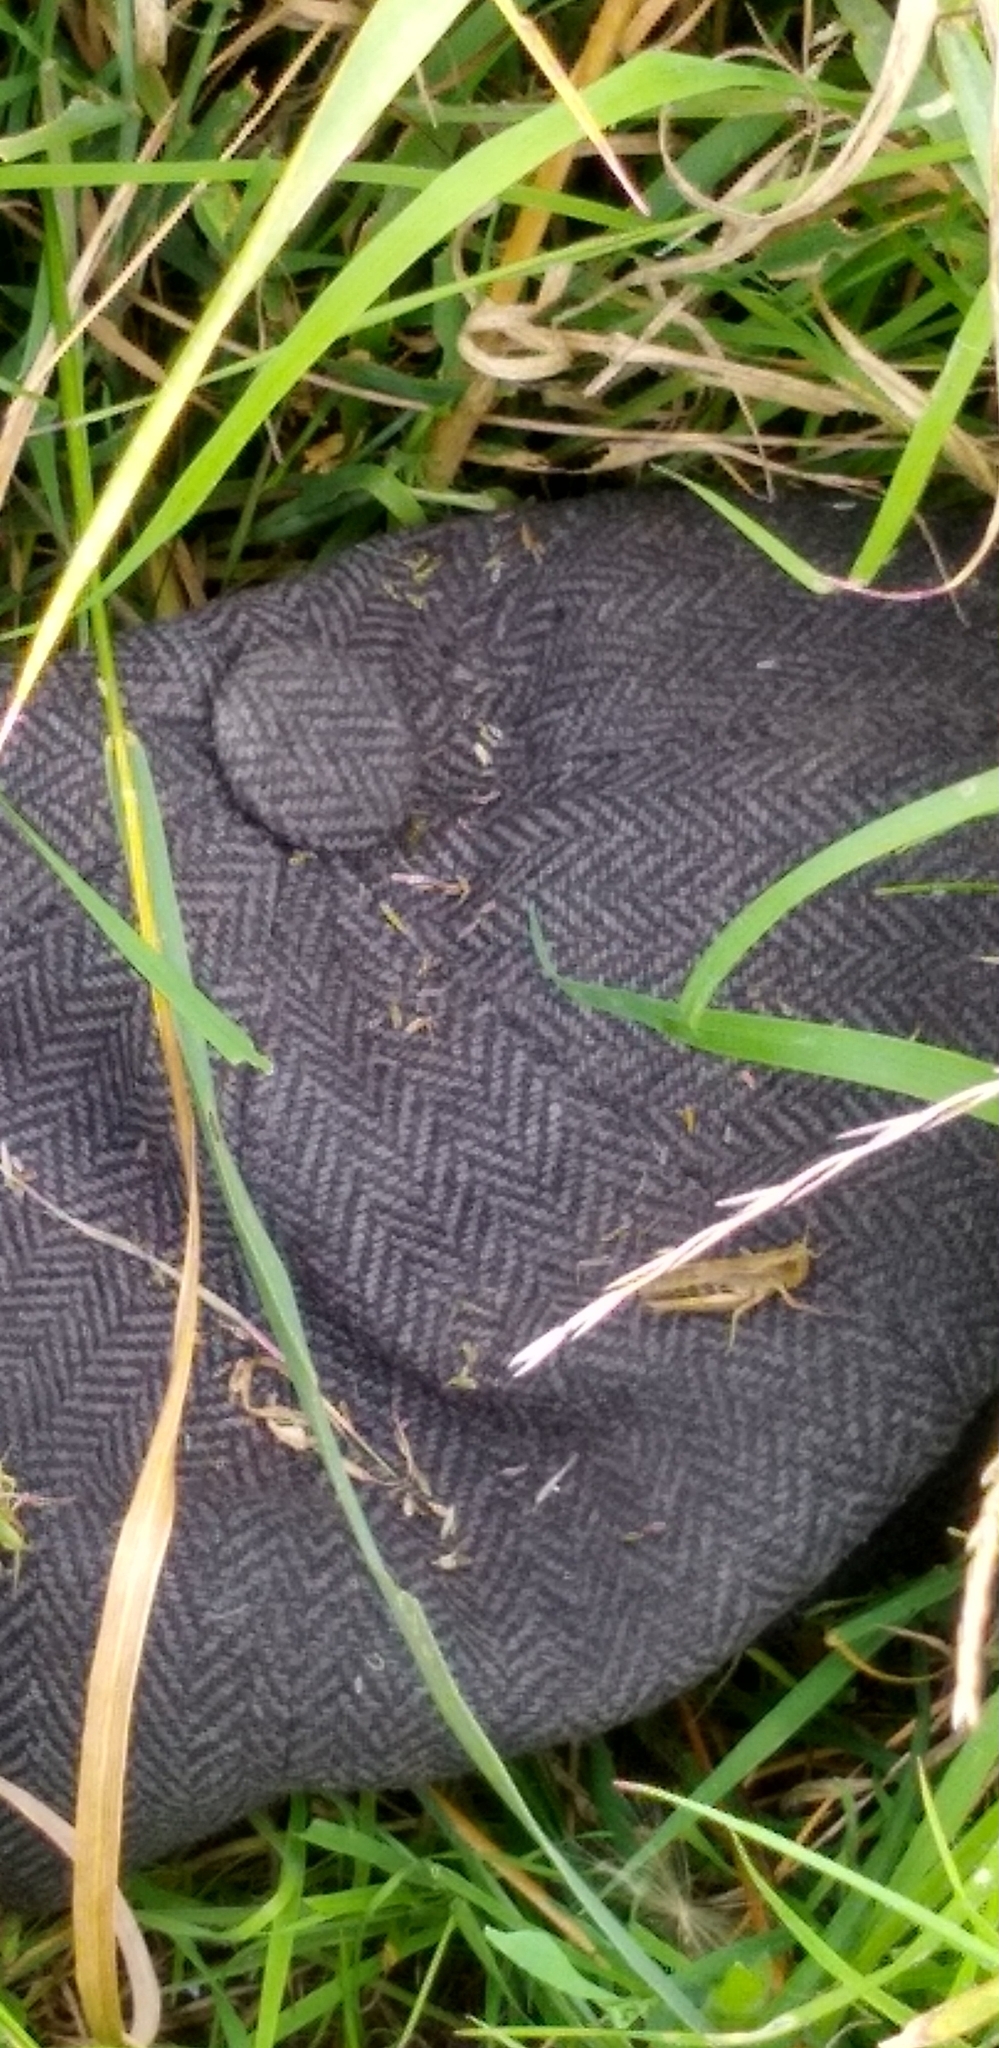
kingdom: Animalia
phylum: Arthropoda
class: Insecta
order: Orthoptera
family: Acrididae
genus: Pseudochorthippus
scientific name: Pseudochorthippus parallelus
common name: Meadow grasshopper
